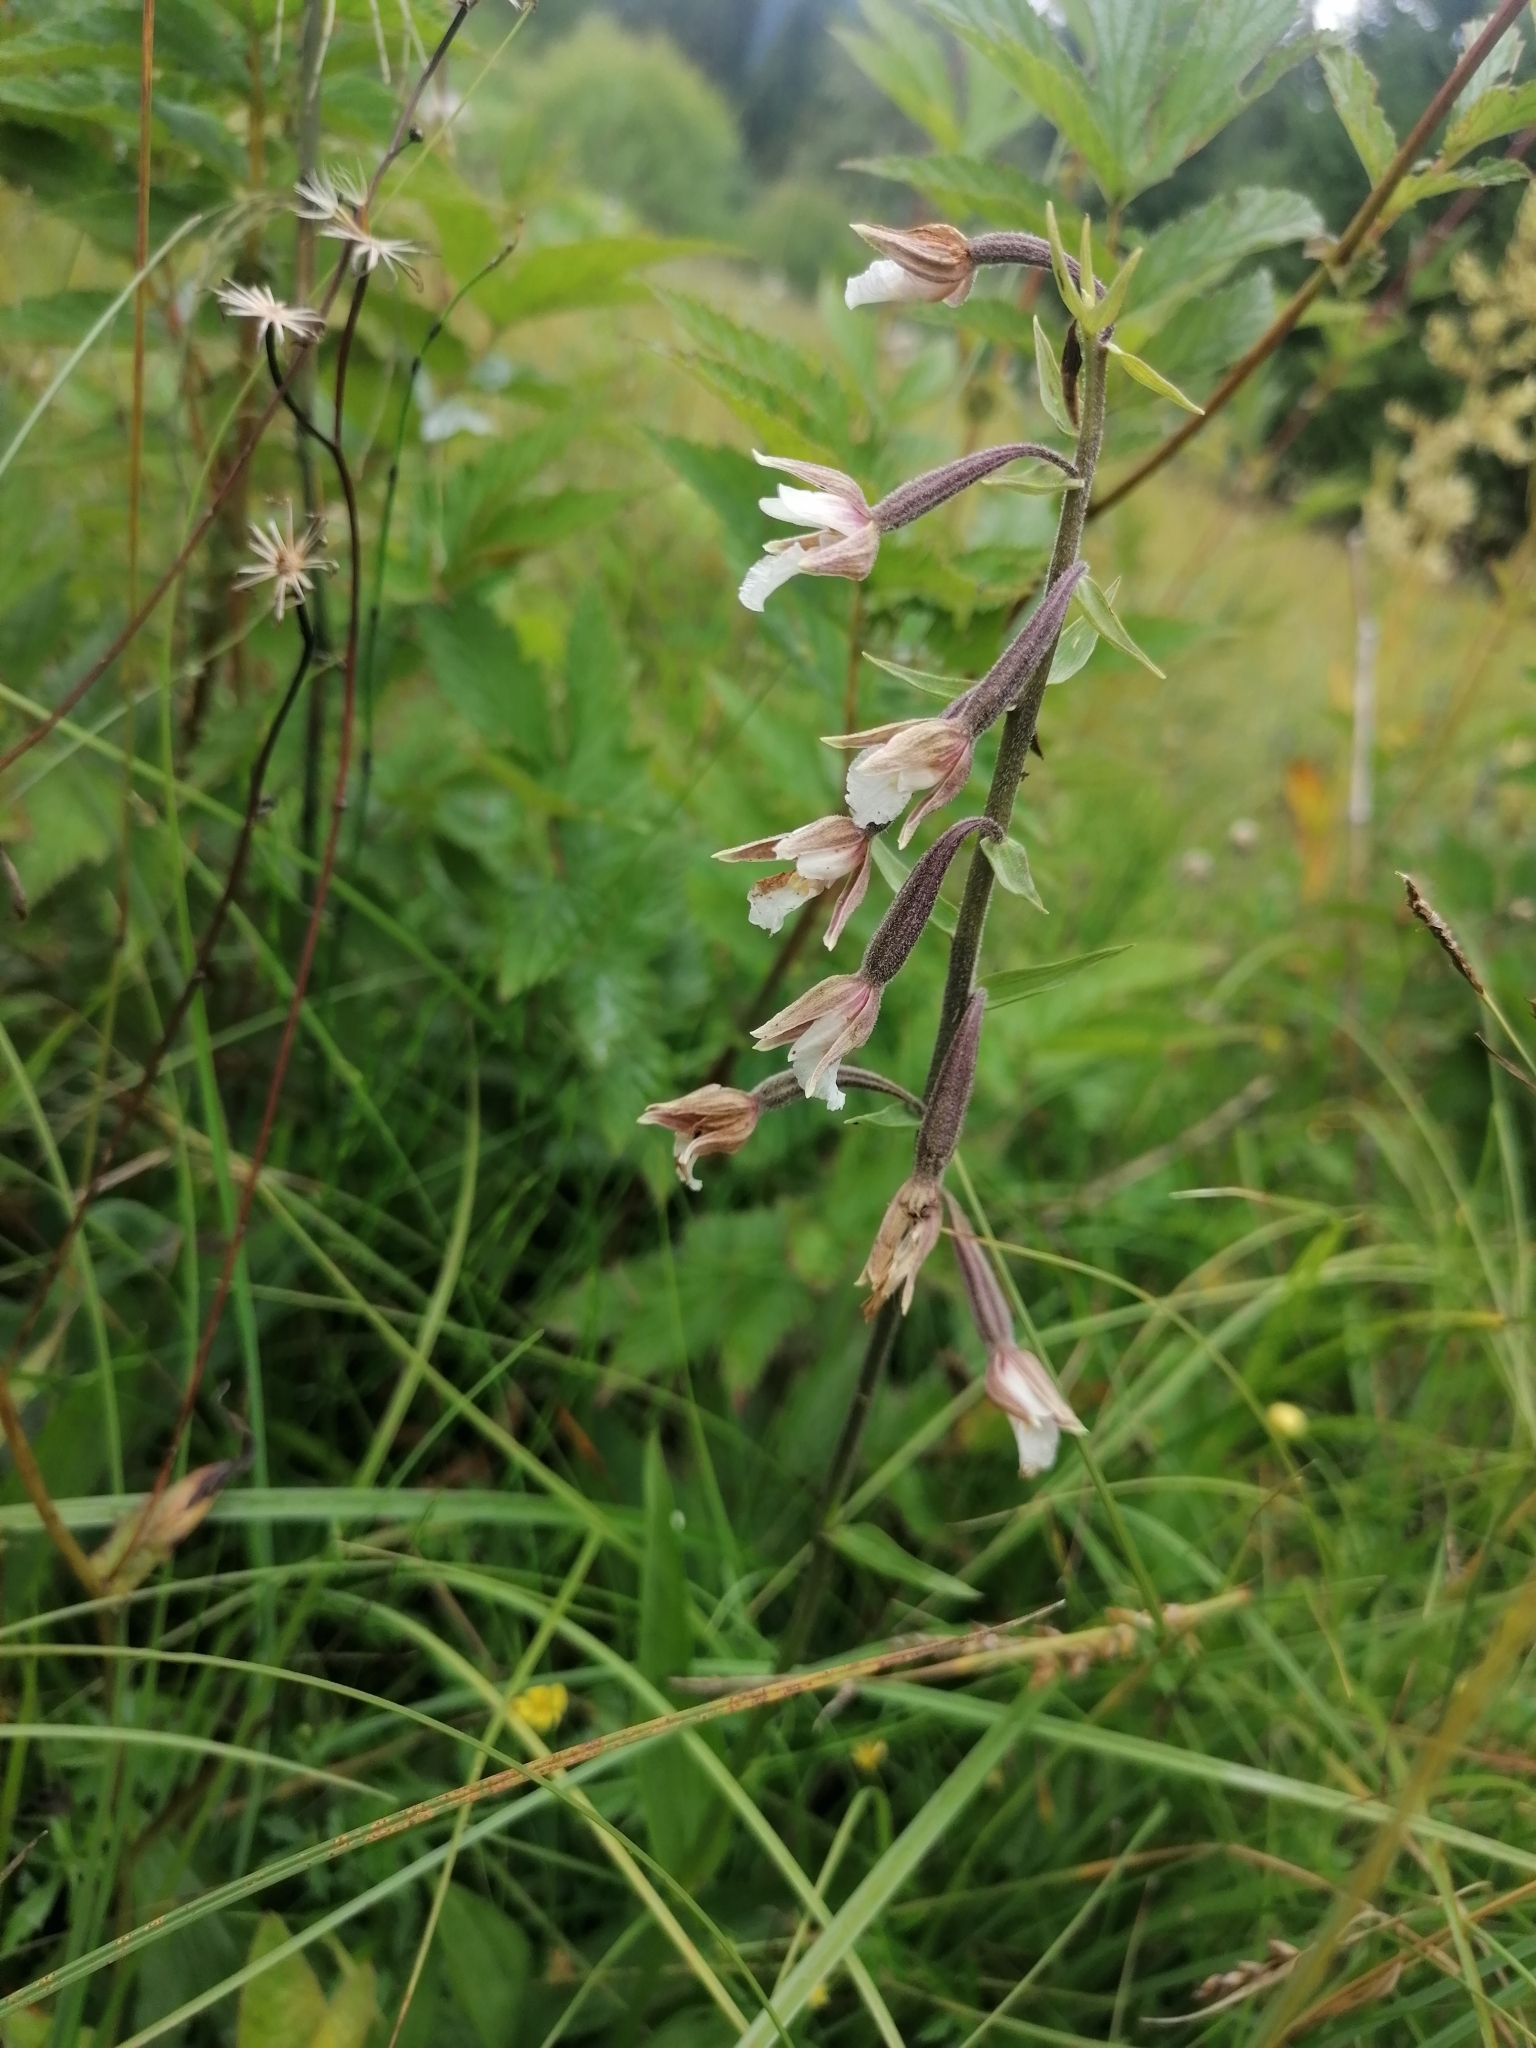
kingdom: Plantae
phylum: Tracheophyta
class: Liliopsida
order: Asparagales
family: Orchidaceae
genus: Epipactis
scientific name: Epipactis palustris
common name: Marsh helleborine
